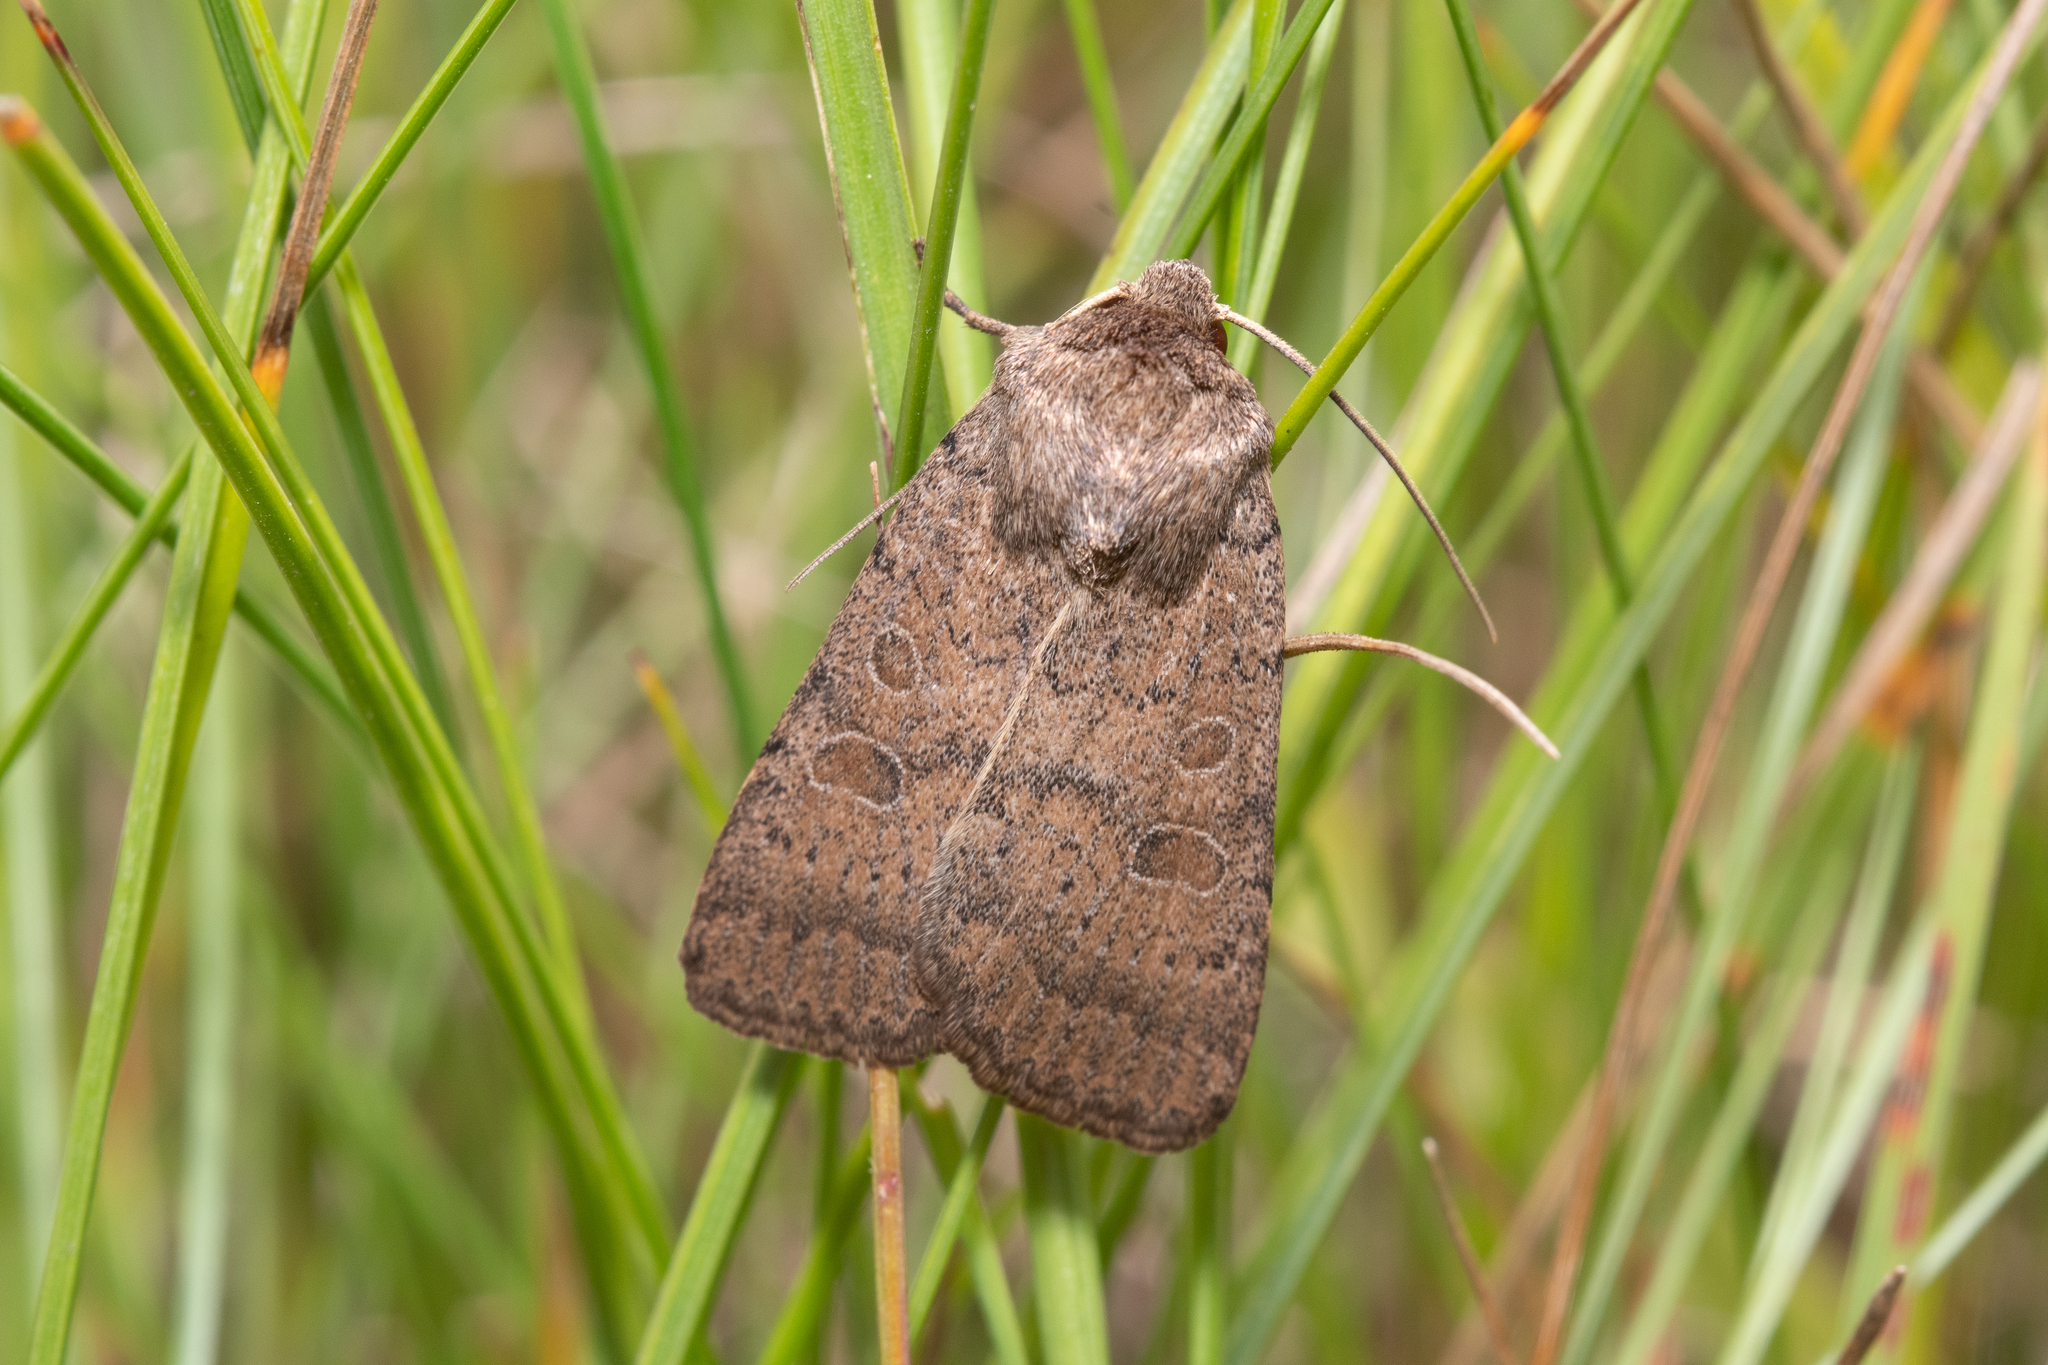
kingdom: Animalia
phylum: Arthropoda
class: Insecta
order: Lepidoptera
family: Noctuidae
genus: Hoplodrina
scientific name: Hoplodrina blanda
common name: Rustic
